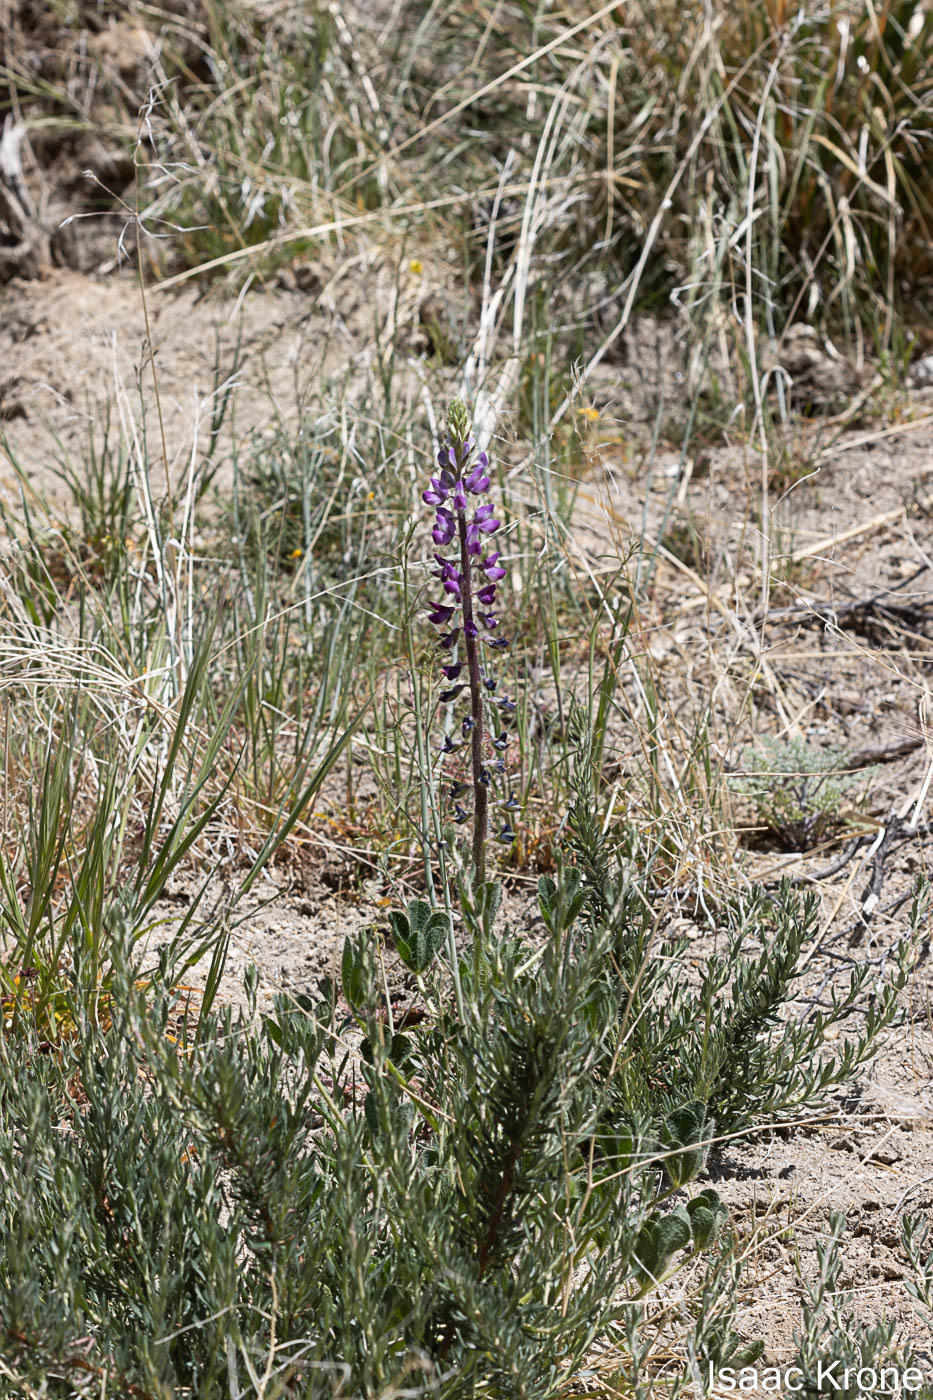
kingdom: Plantae
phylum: Tracheophyta
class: Magnoliopsida
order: Fabales
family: Fabaceae
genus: Lupinus
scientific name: Lupinus hirsutissimus
